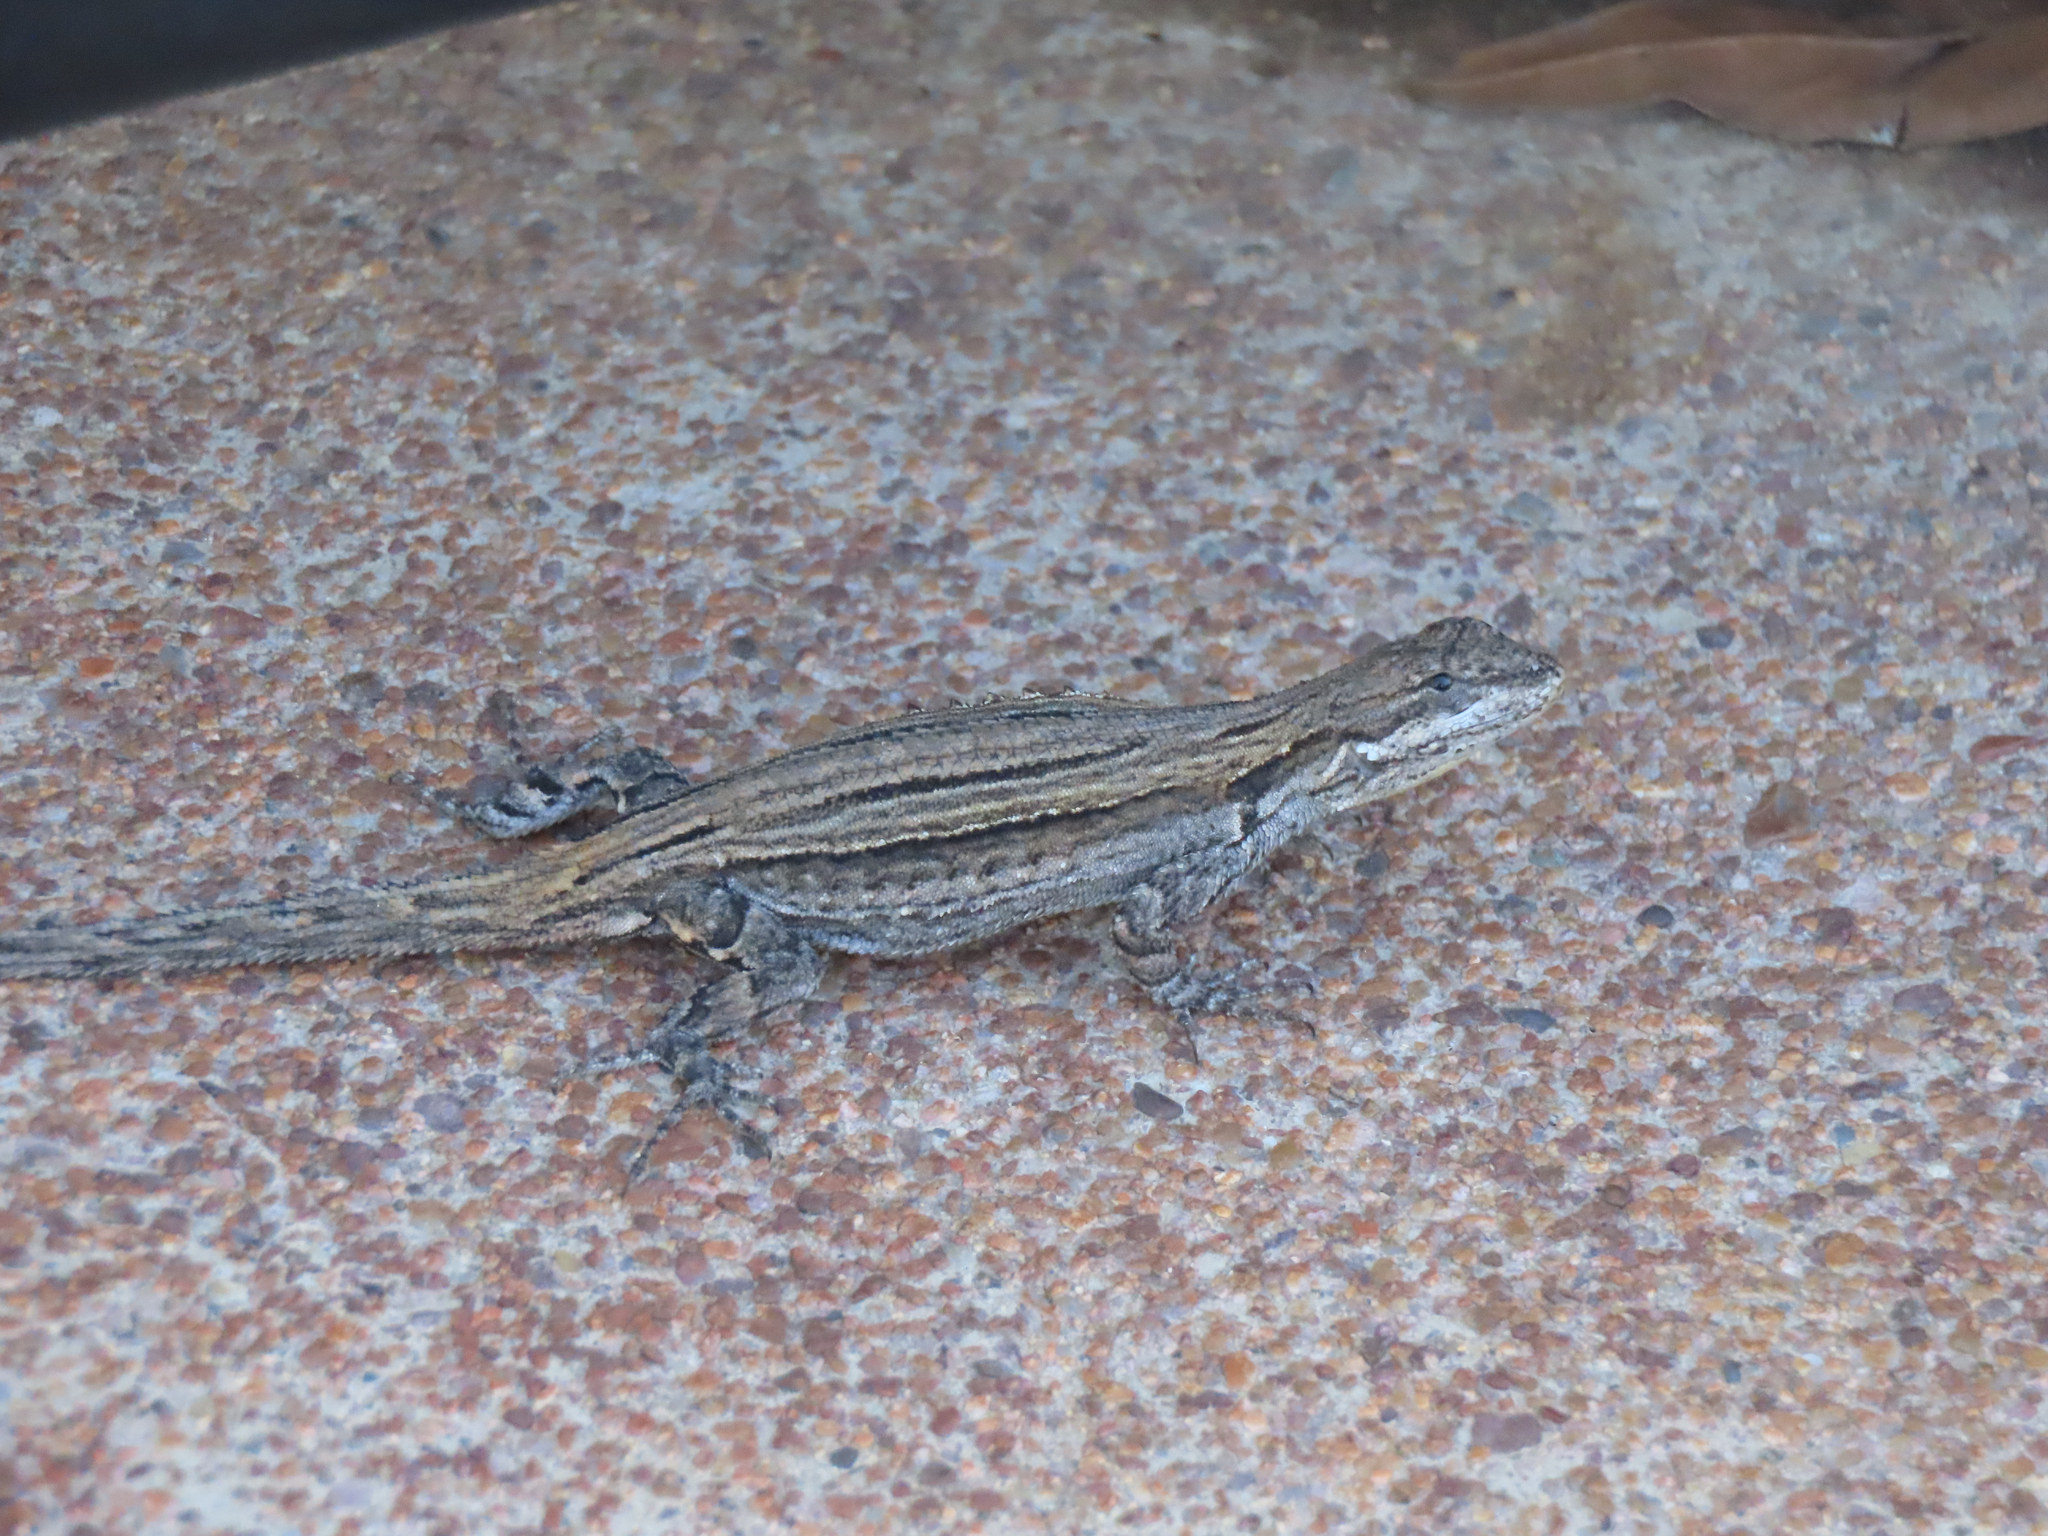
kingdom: Animalia
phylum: Chordata
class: Squamata
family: Phrynosomatidae
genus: Urosaurus
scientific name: Urosaurus ornatus
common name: Ornate tree lizard
